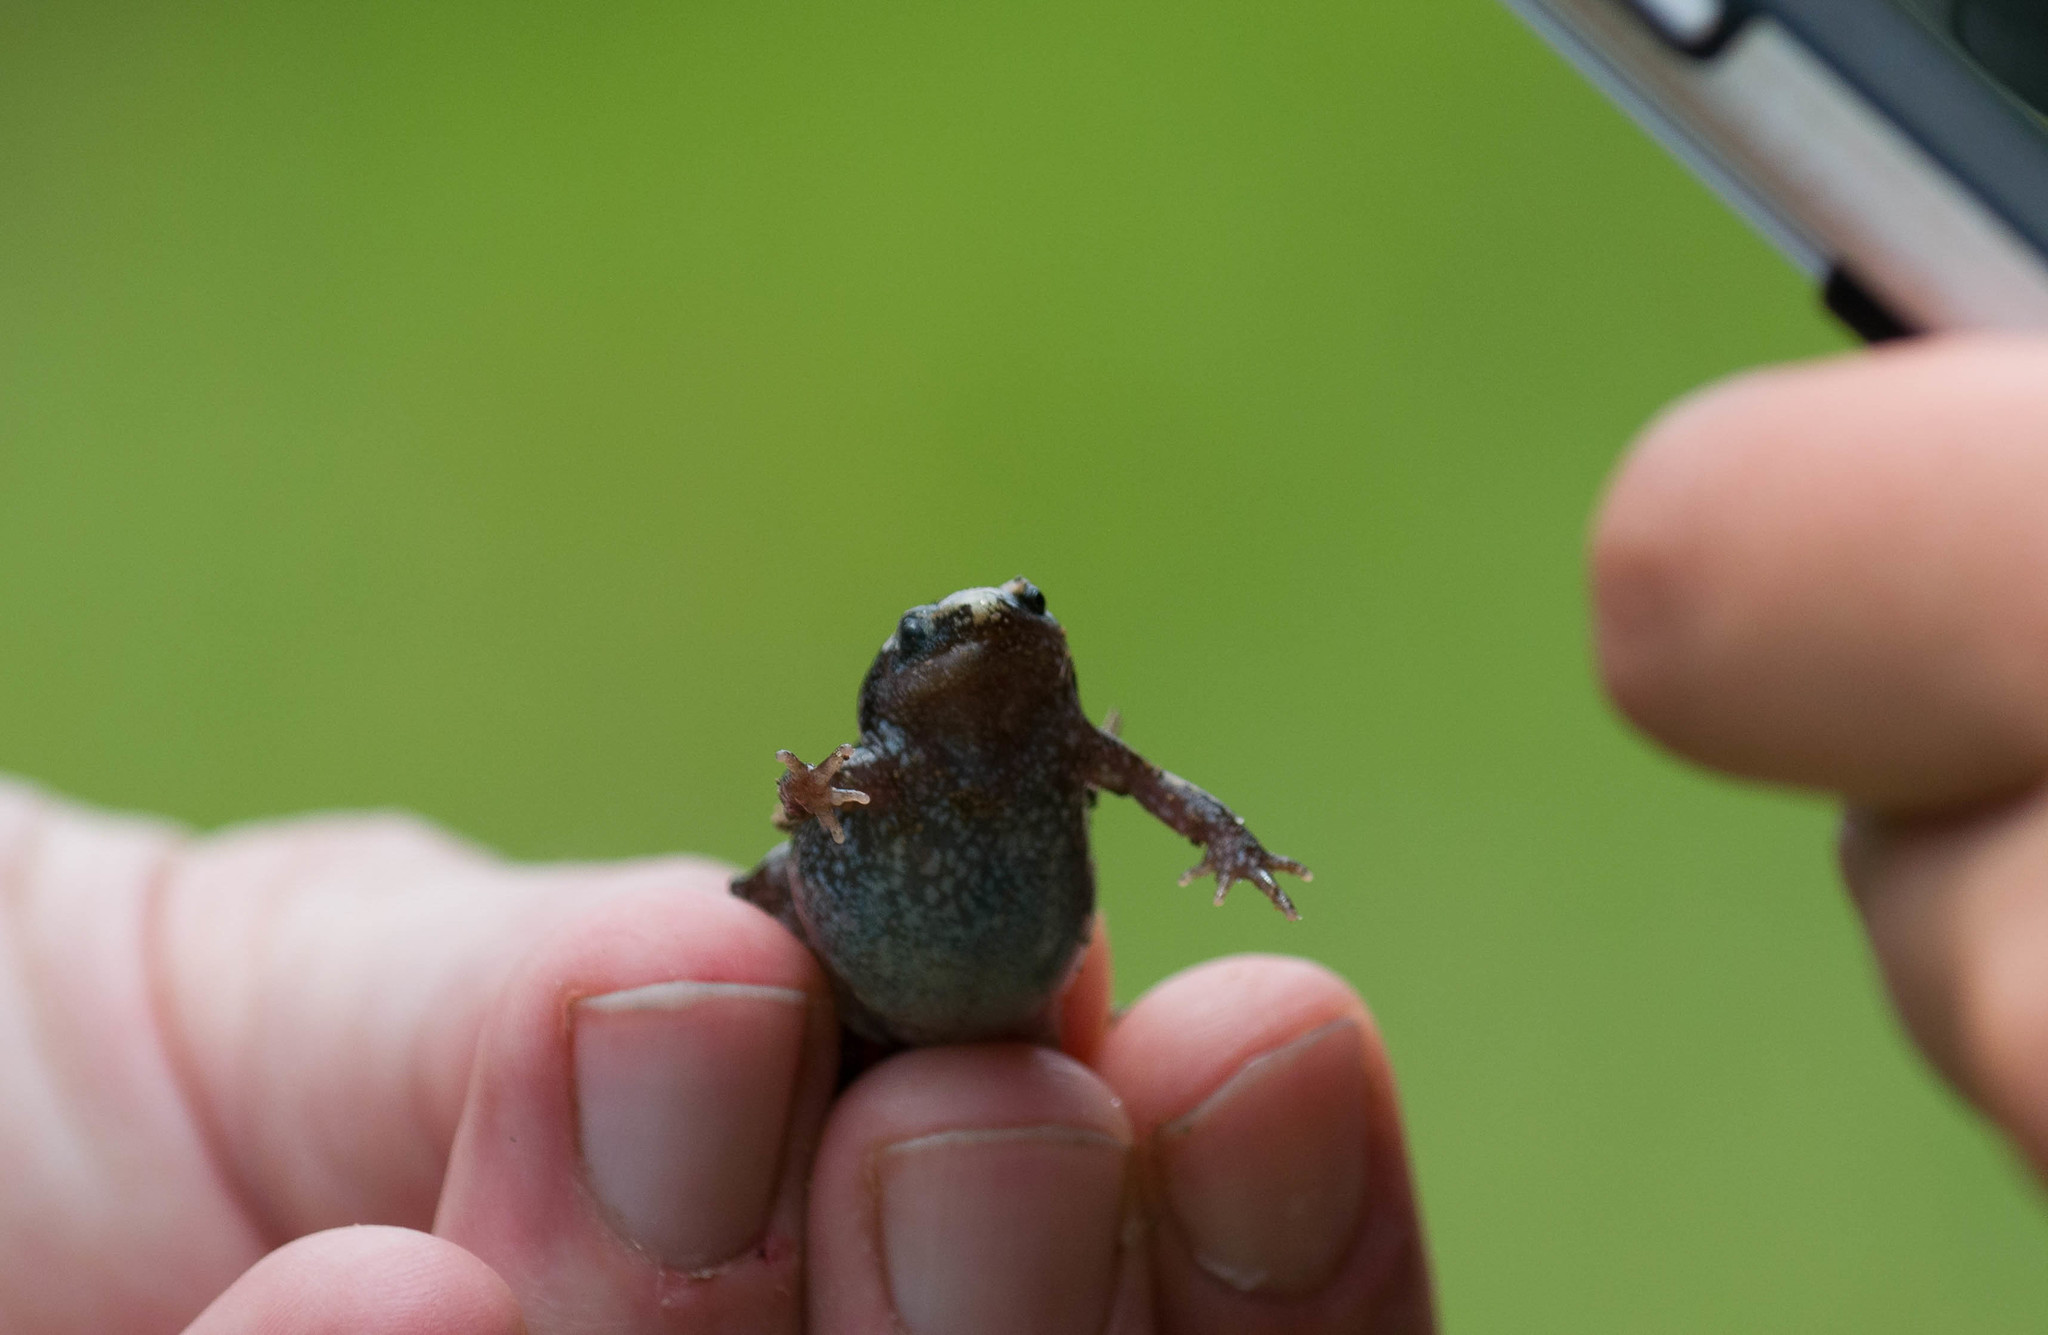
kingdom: Animalia
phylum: Chordata
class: Amphibia
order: Anura
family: Microhylidae
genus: Gastrophryne
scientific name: Gastrophryne carolinensis
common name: Eastern narrowmouth toad
